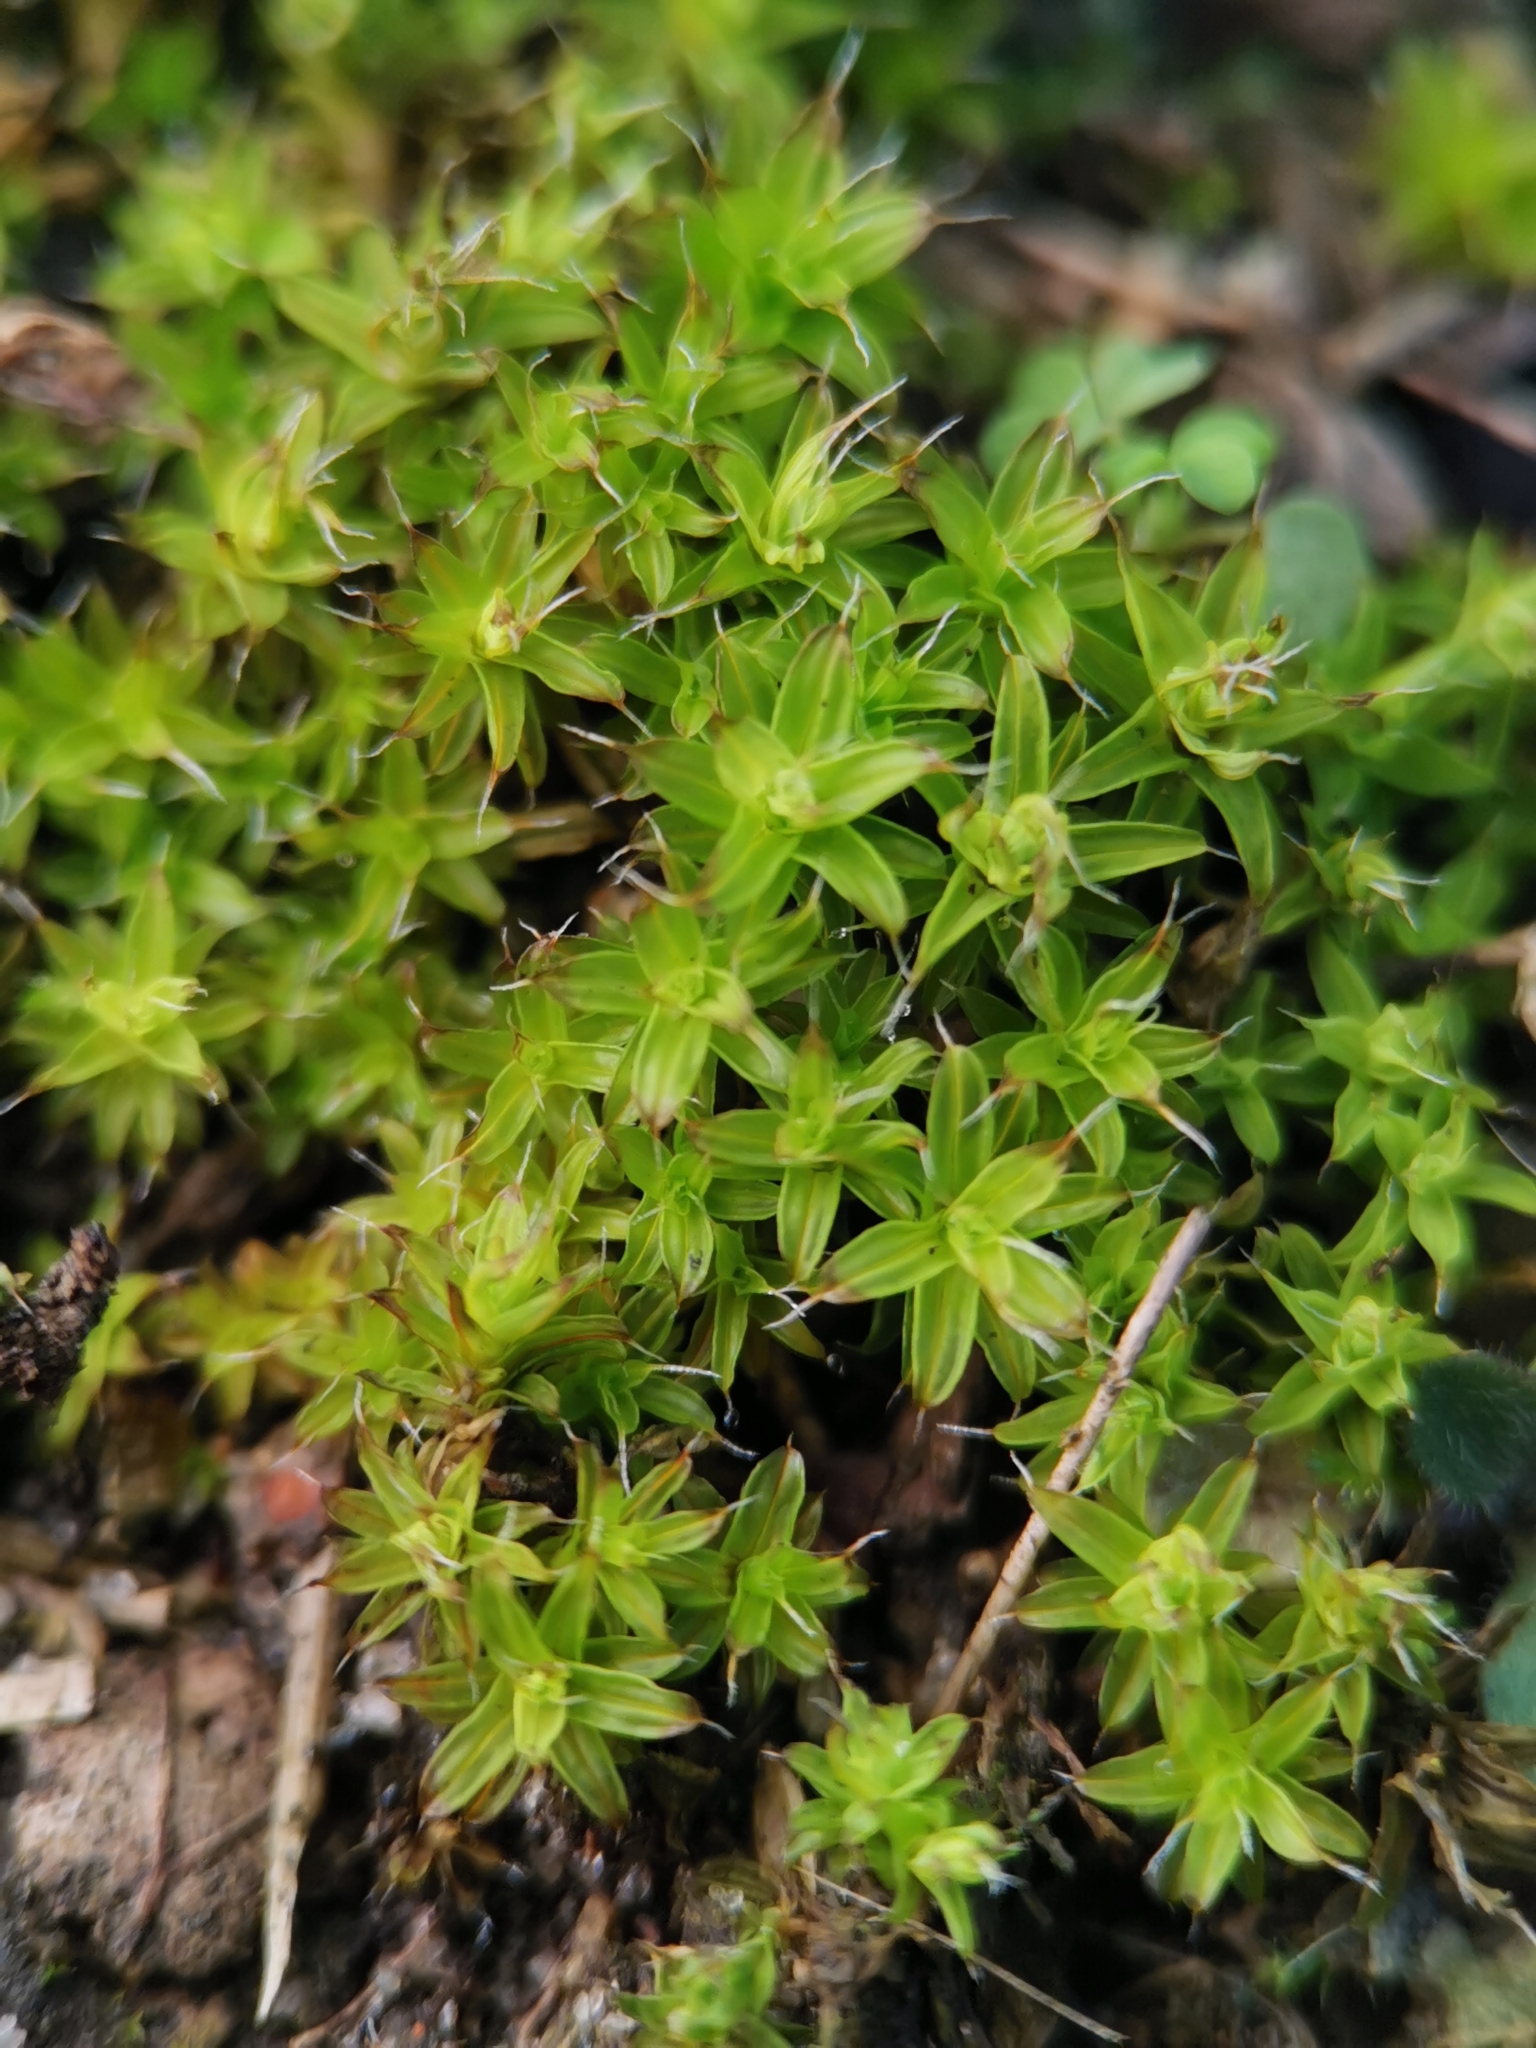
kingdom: Plantae
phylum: Bryophyta
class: Bryopsida
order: Pottiales
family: Pottiaceae
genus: Syntrichia
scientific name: Syntrichia ruralis
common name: Sidewalk screw moss
